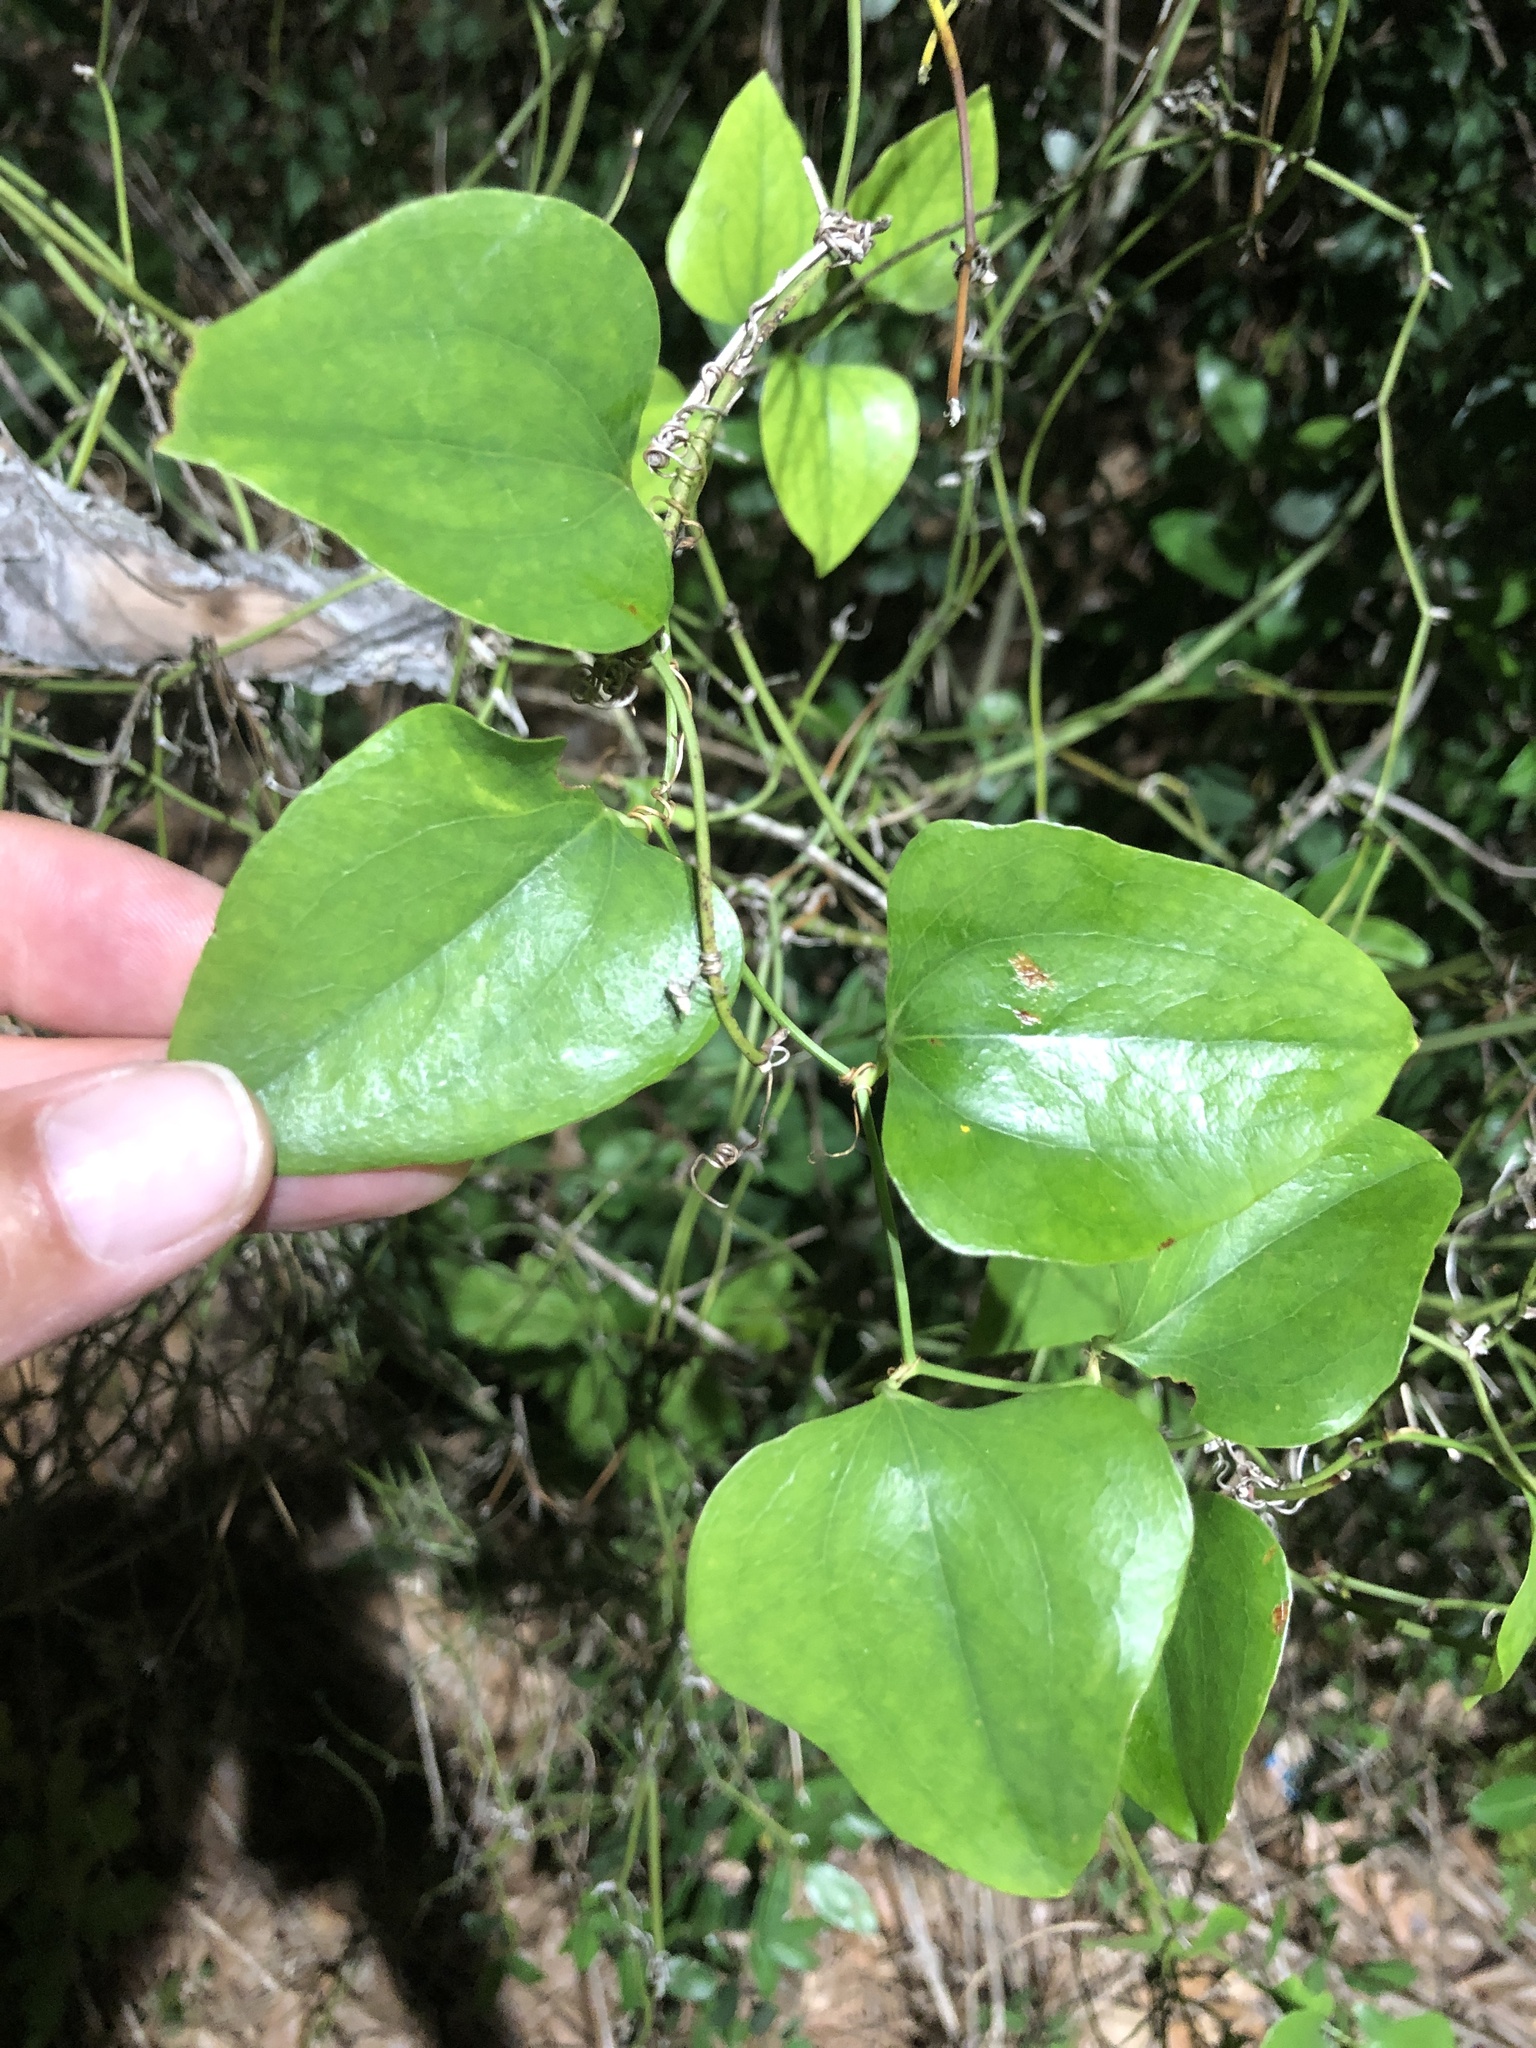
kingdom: Plantae
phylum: Tracheophyta
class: Liliopsida
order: Liliales
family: Smilacaceae
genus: Smilax
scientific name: Smilax bona-nox
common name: Catbrier
